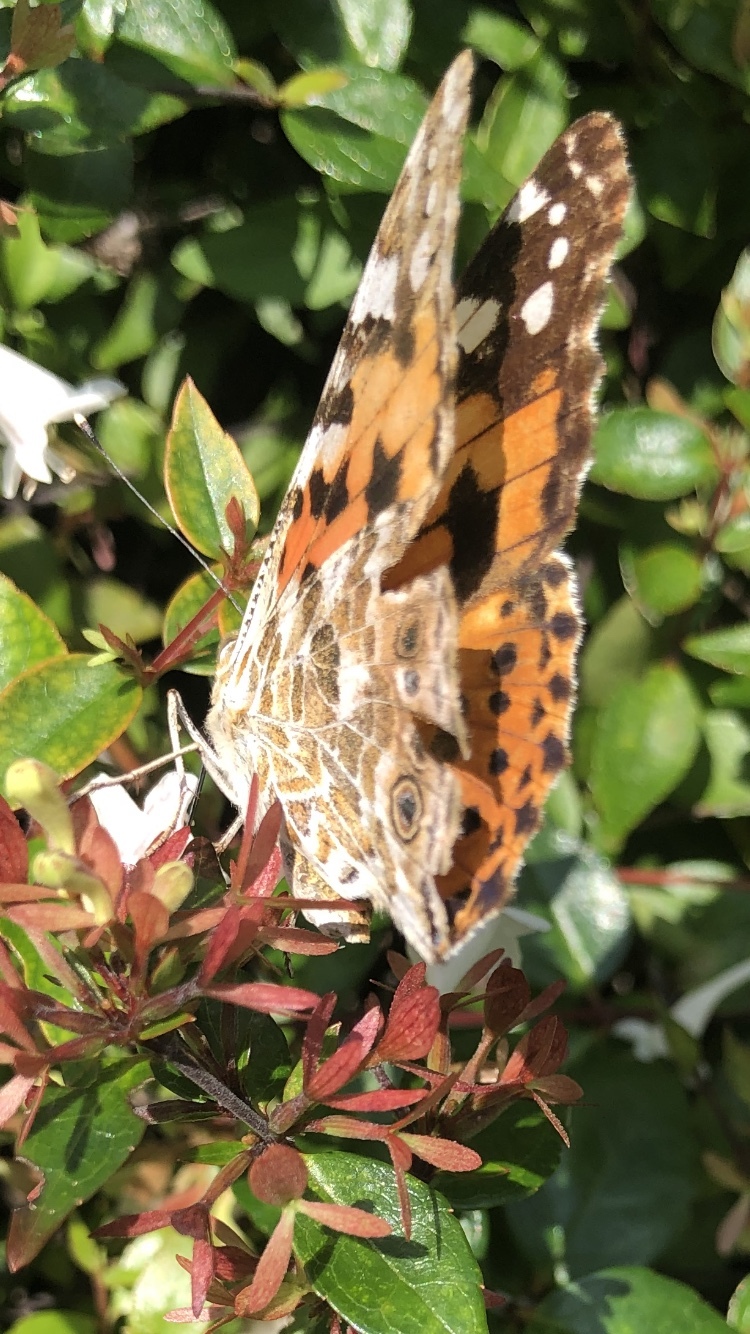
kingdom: Animalia
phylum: Arthropoda
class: Insecta
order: Lepidoptera
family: Nymphalidae
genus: Vanessa
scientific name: Vanessa cardui
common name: Painted lady
